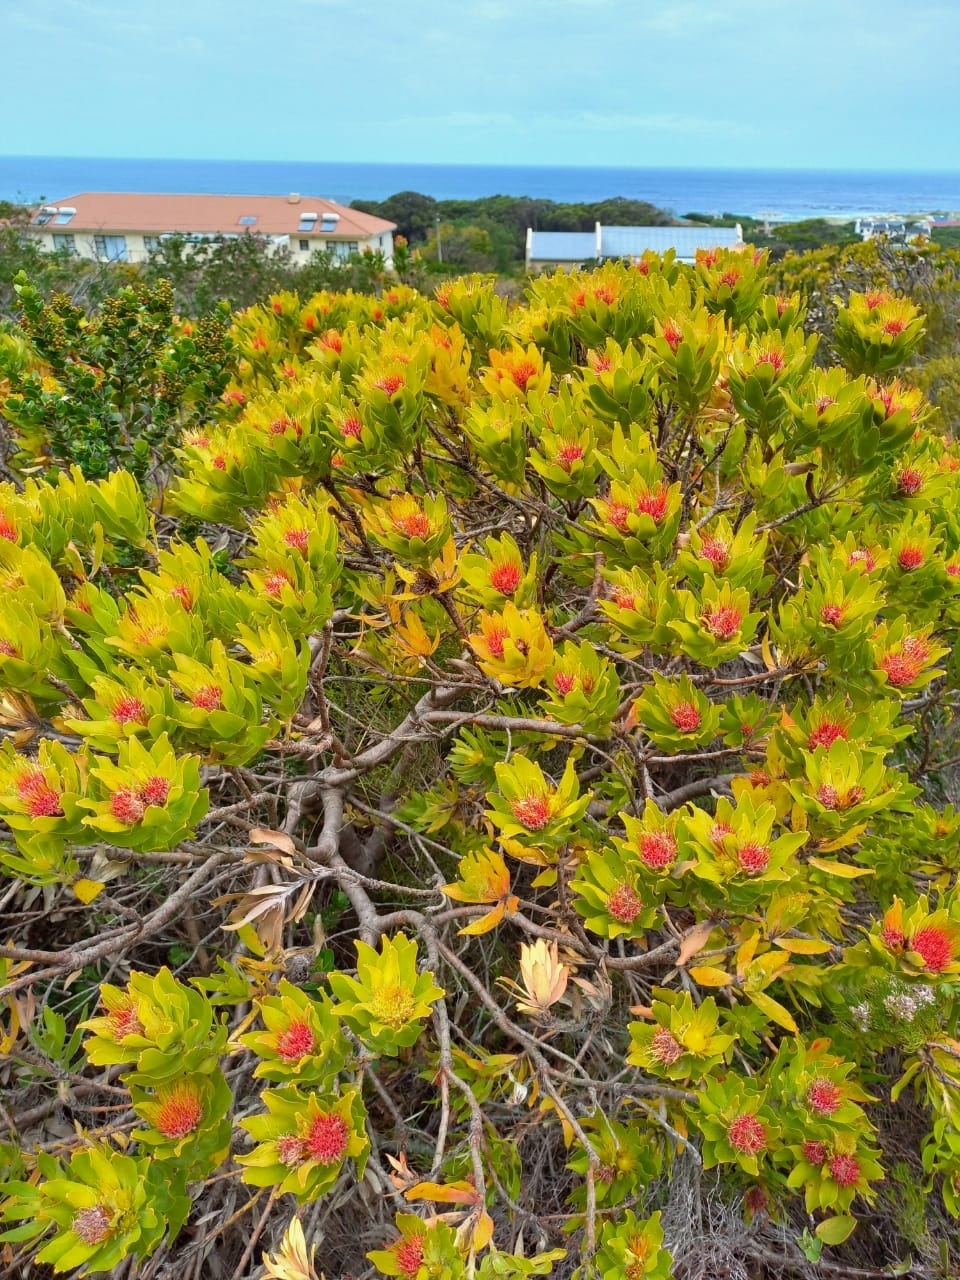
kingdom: Plantae
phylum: Tracheophyta
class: Magnoliopsida
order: Proteales
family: Proteaceae
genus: Leucospermum
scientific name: Leucospermum oleifolium
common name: Matches
